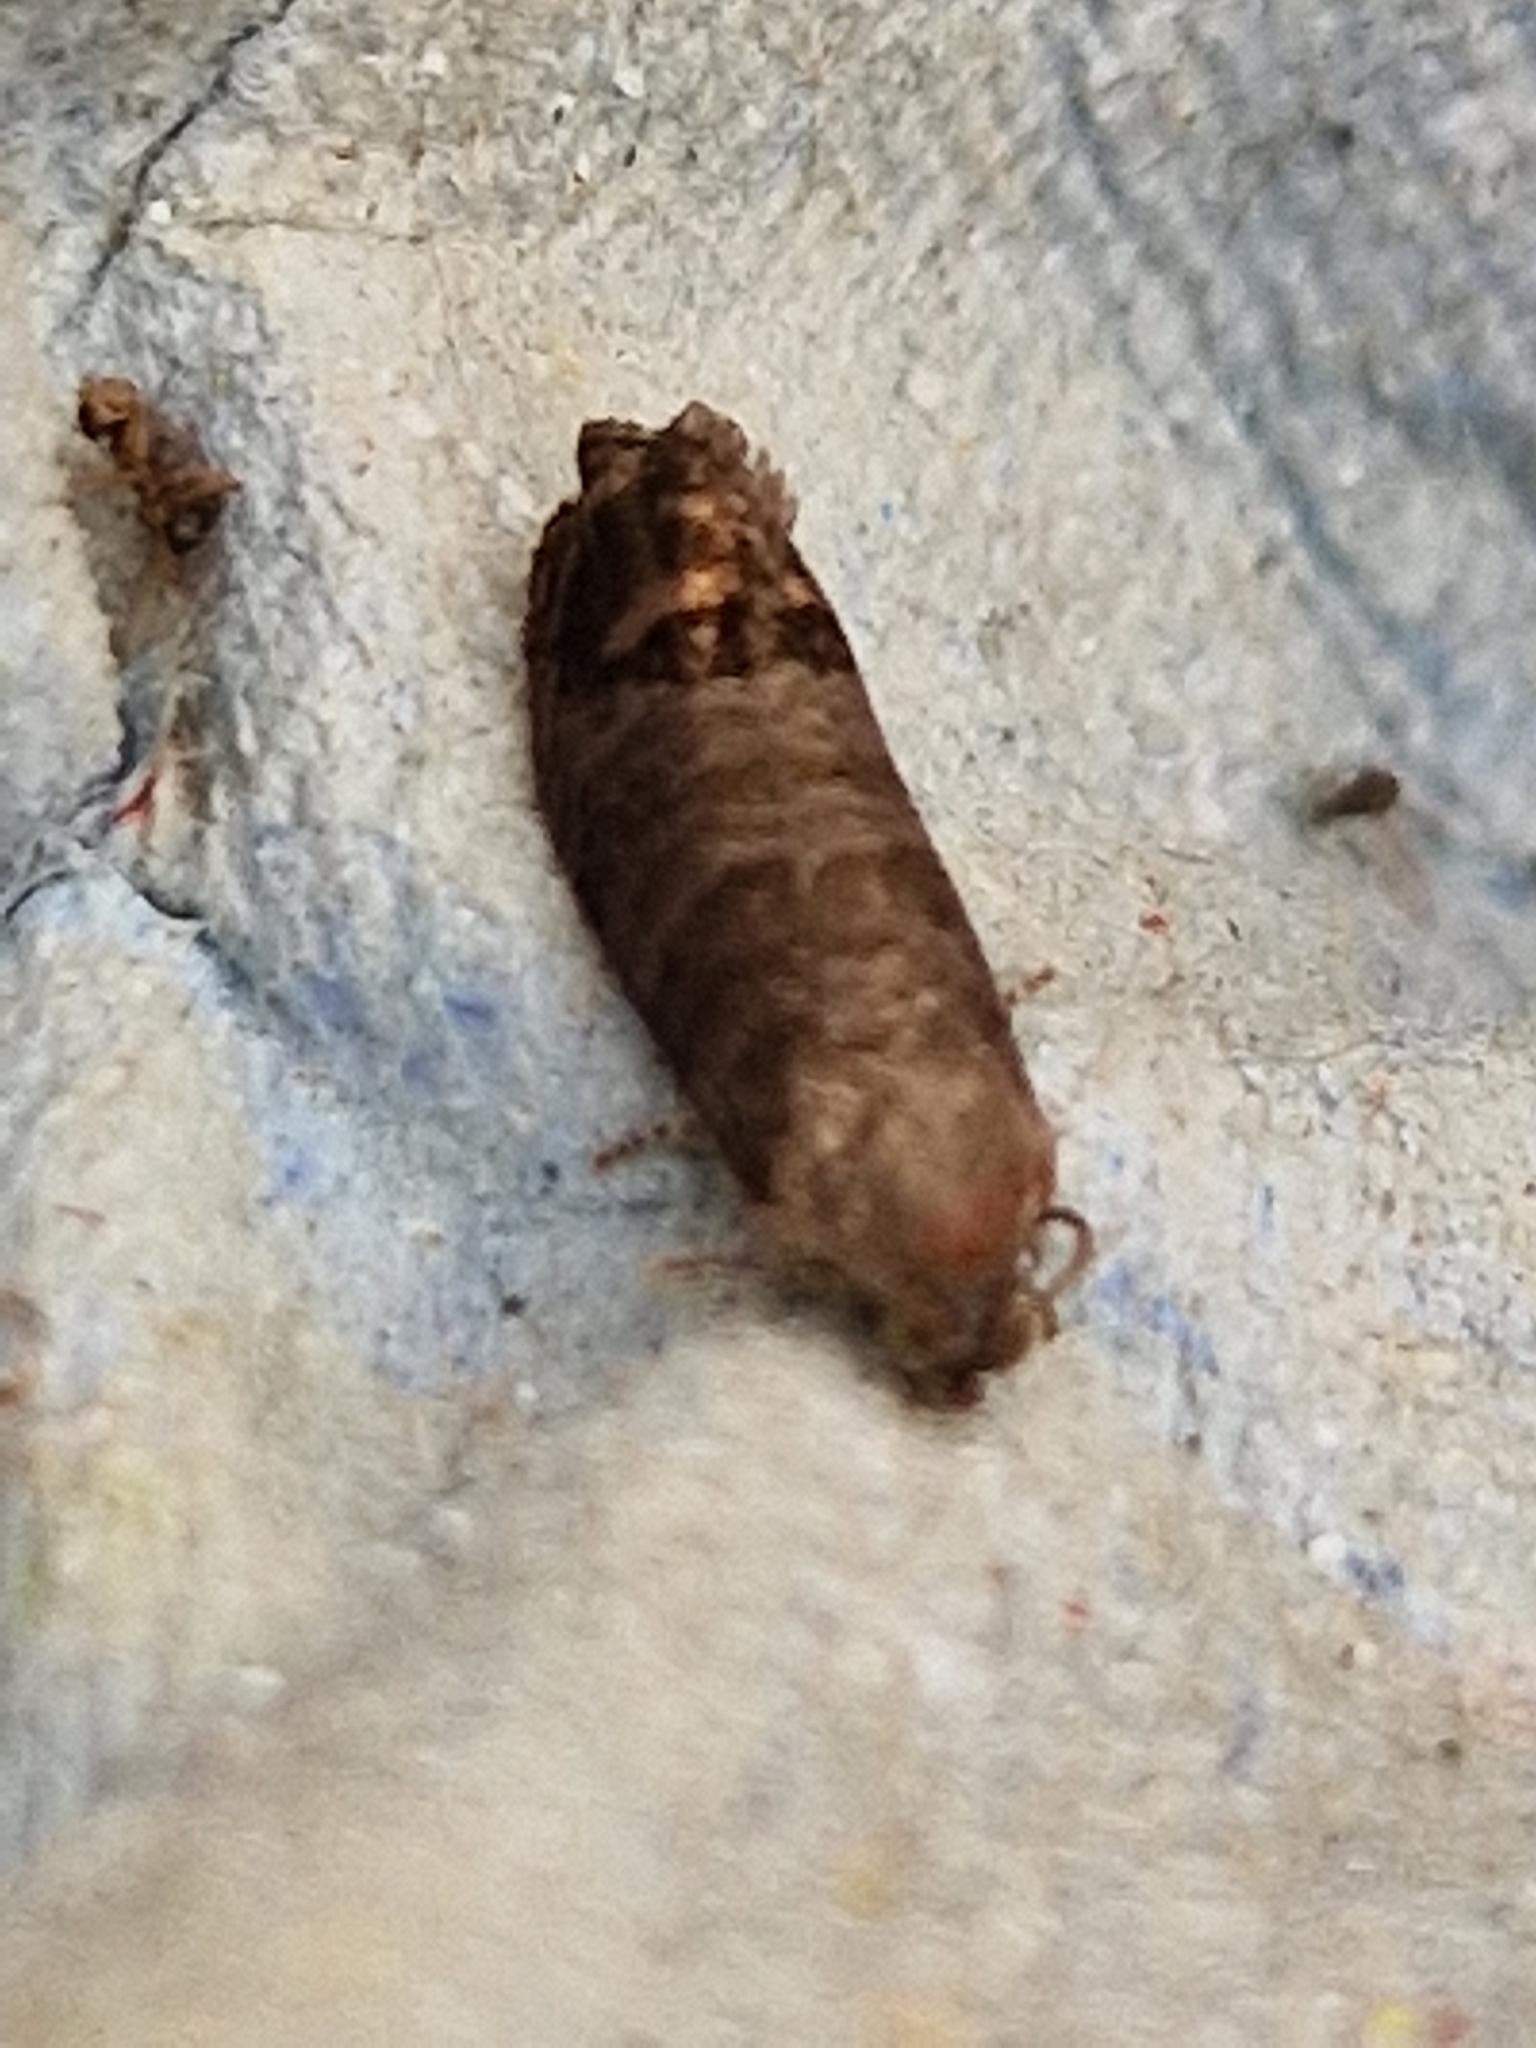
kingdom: Animalia
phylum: Arthropoda
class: Insecta
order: Lepidoptera
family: Tortricidae
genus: Cydia
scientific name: Cydia pomonella
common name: Codling moth
